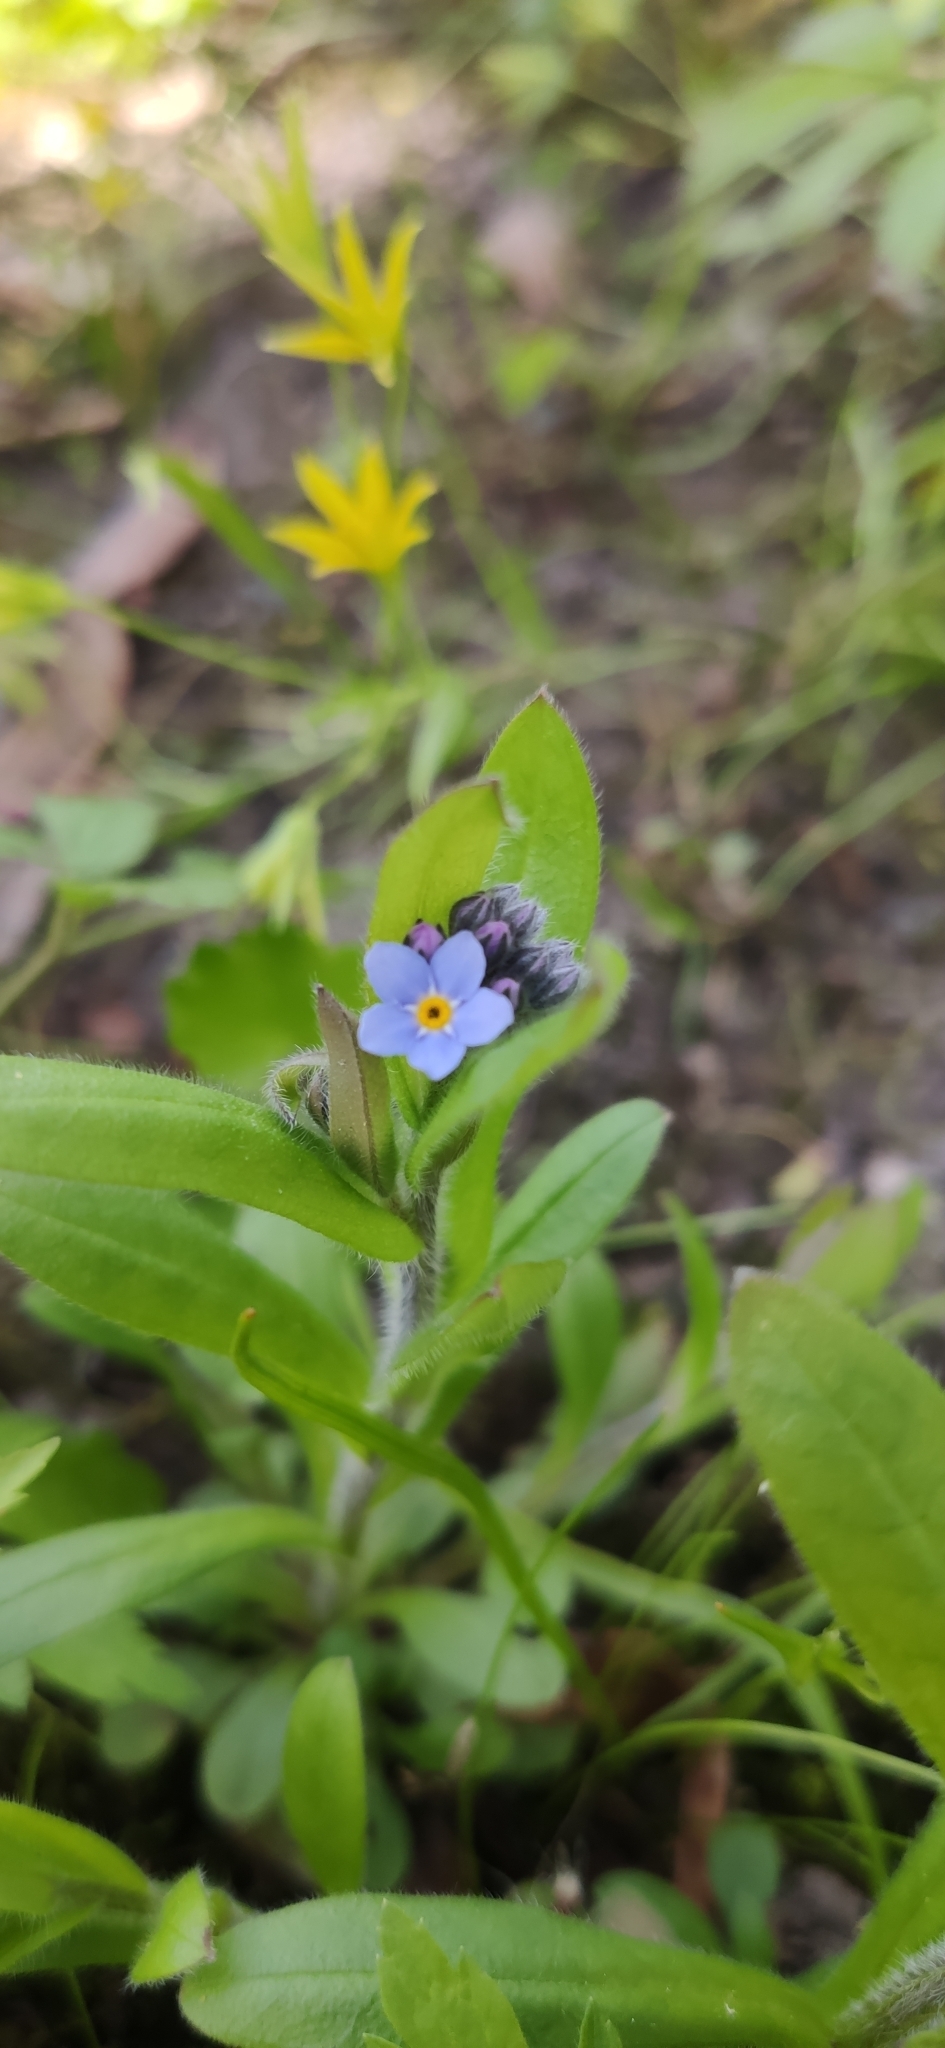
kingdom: Plantae
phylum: Tracheophyta
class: Magnoliopsida
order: Boraginales
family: Boraginaceae
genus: Myosotis
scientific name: Myosotis sylvatica
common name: Wood forget-me-not
